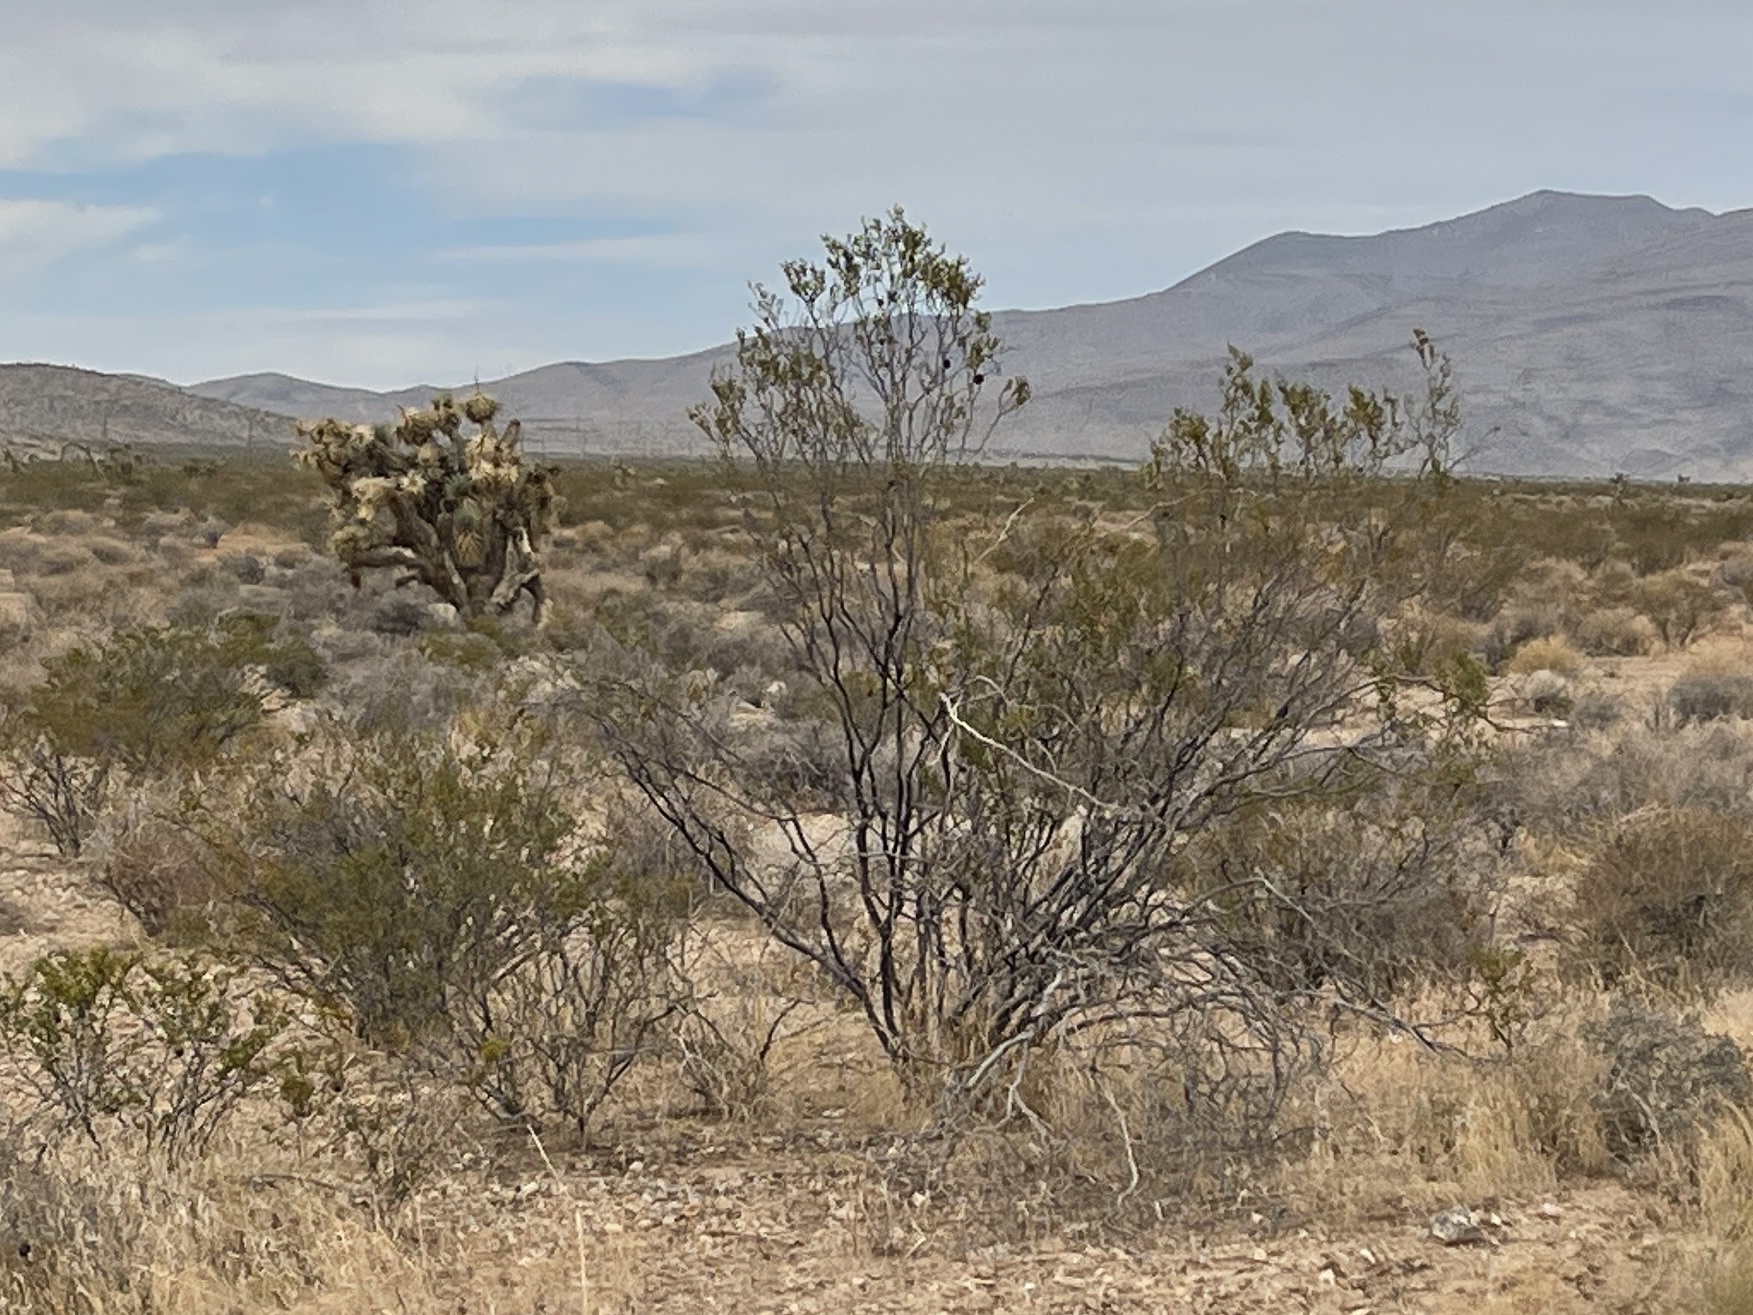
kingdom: Plantae
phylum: Tracheophyta
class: Magnoliopsida
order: Zygophyllales
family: Zygophyllaceae
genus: Larrea
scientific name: Larrea tridentata
